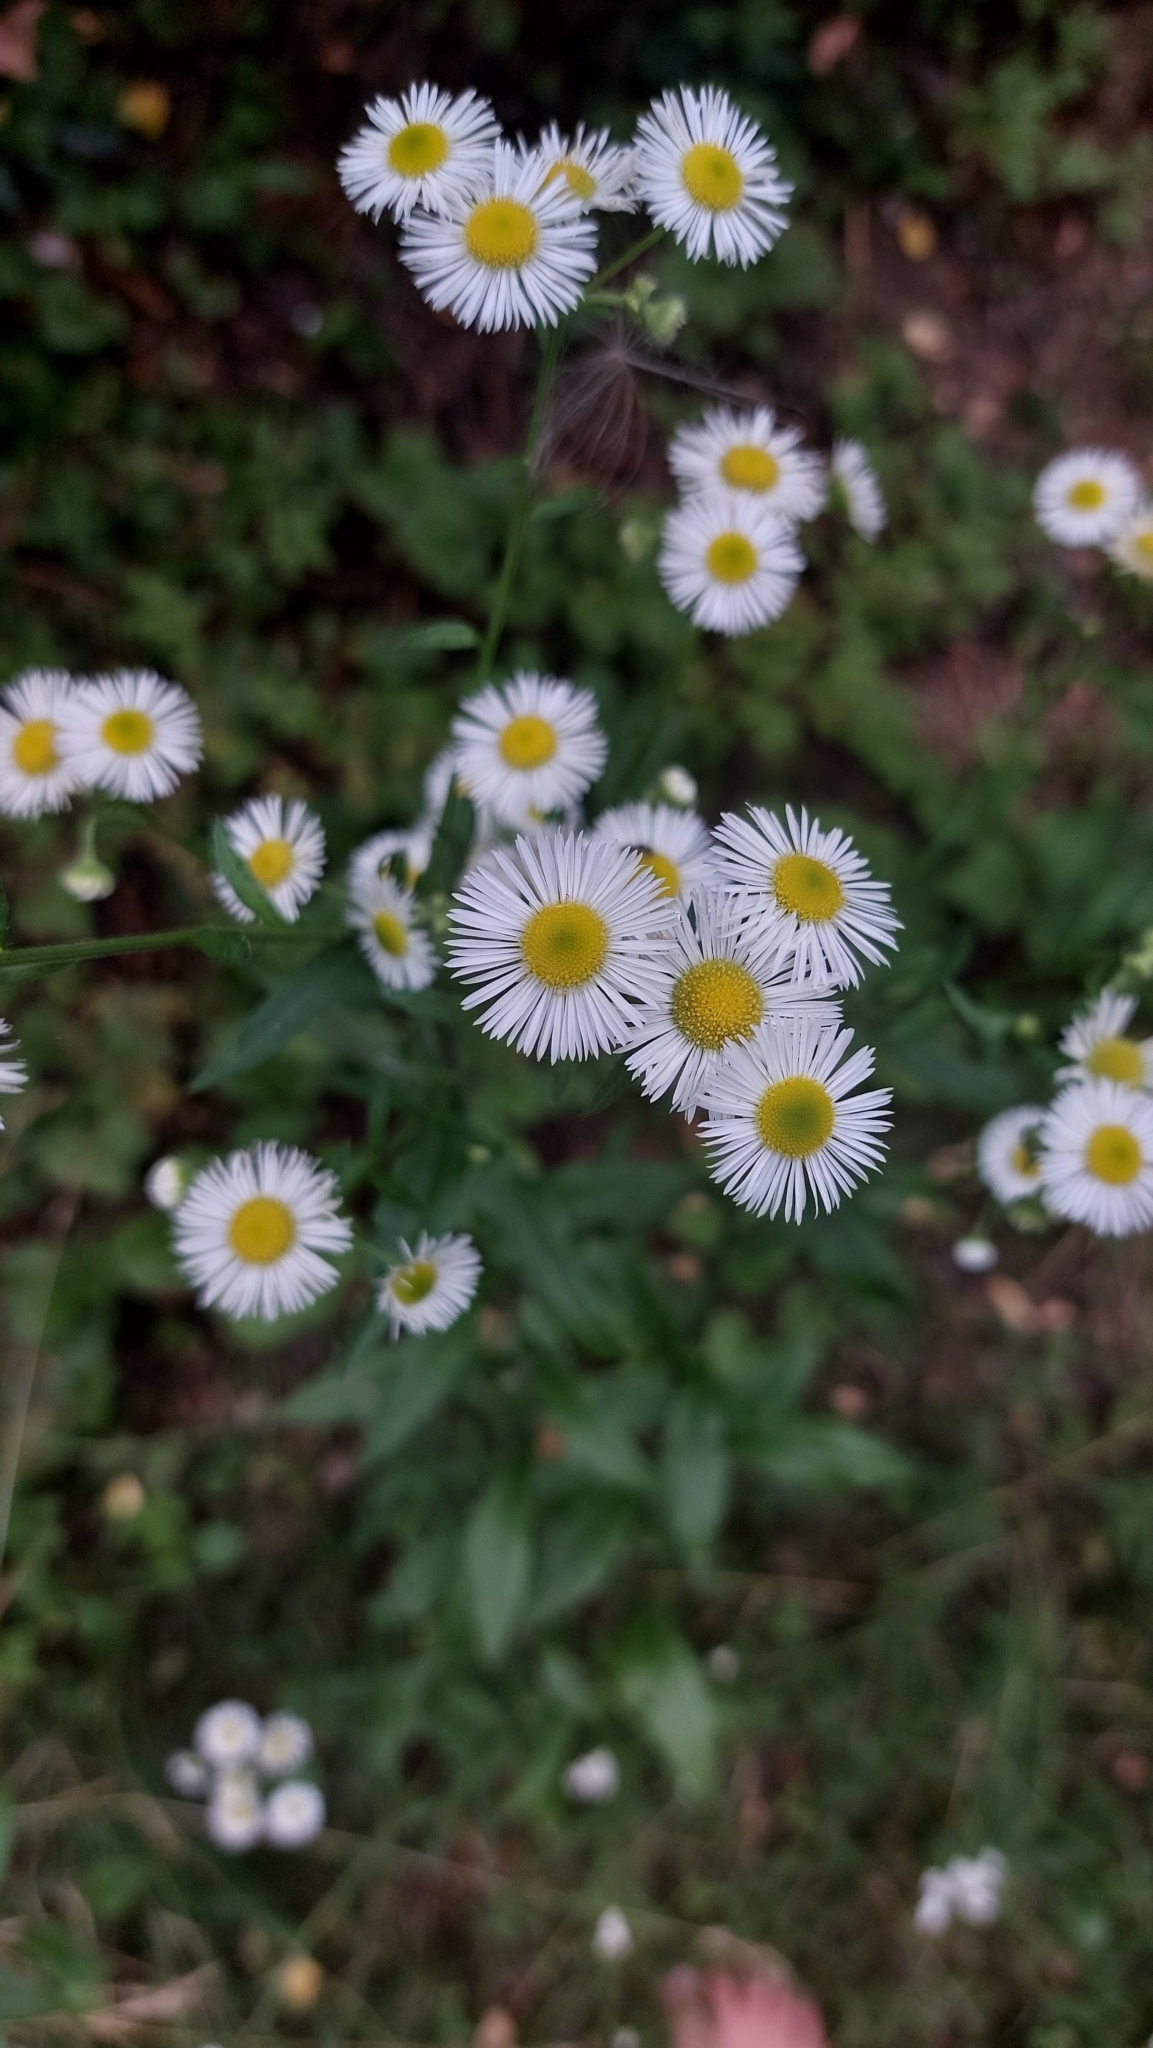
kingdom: Plantae
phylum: Tracheophyta
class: Magnoliopsida
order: Asterales
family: Asteraceae
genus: Erigeron
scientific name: Erigeron annuus
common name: Tall fleabane
